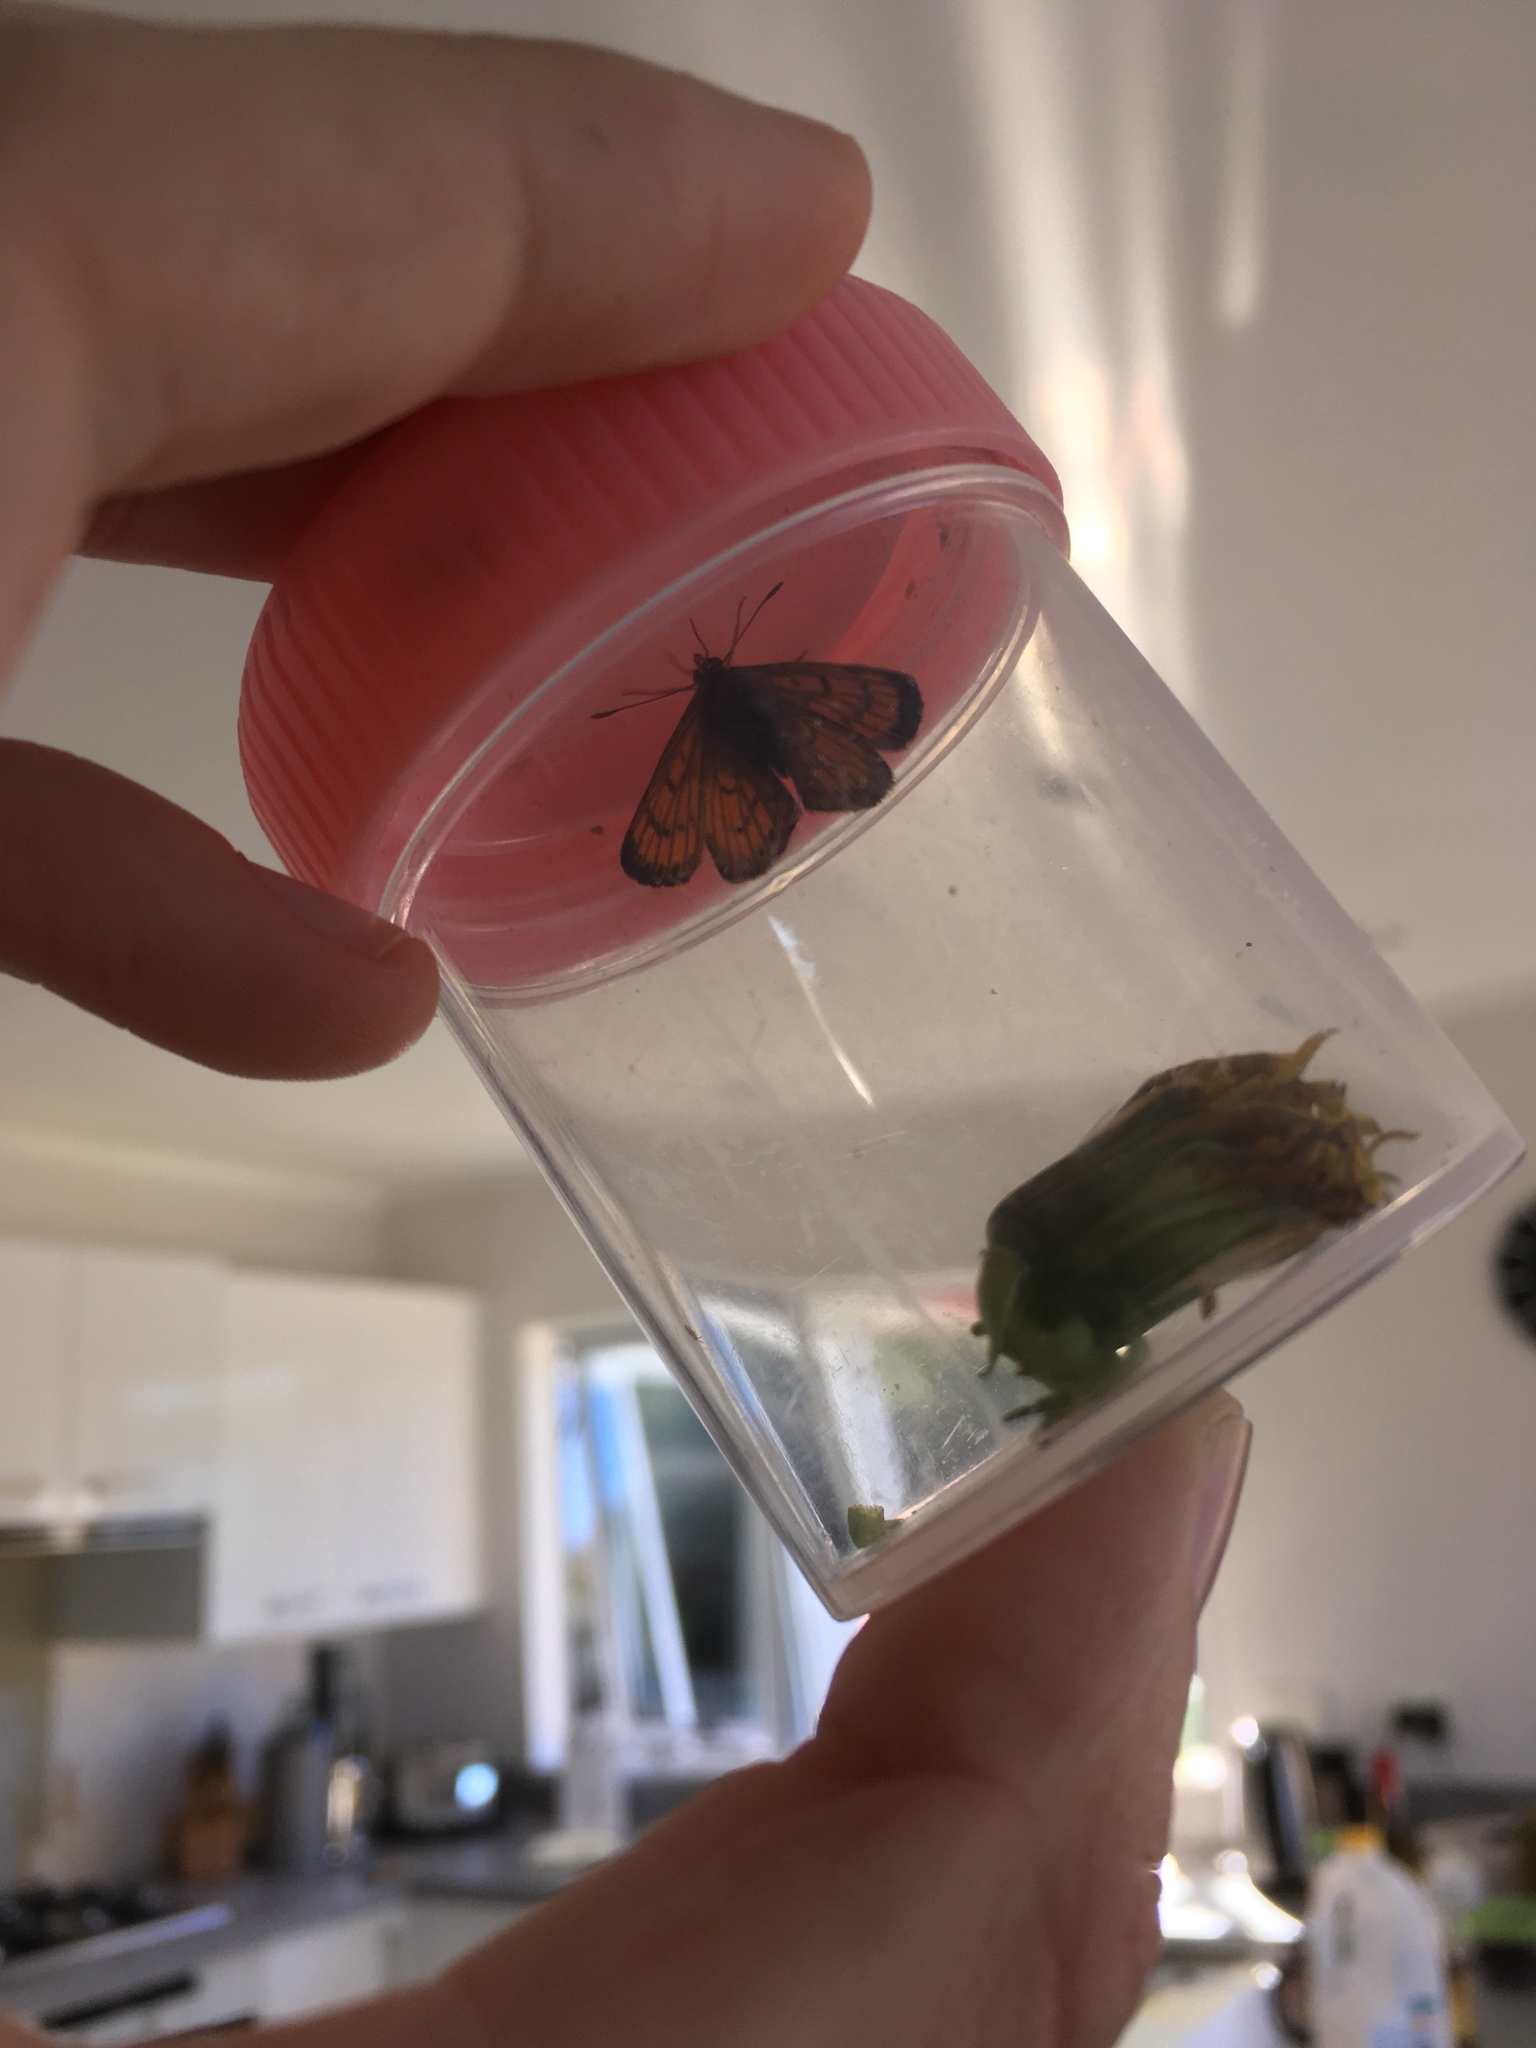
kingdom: Animalia
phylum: Arthropoda
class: Insecta
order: Lepidoptera
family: Lycaenidae
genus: Lycaena
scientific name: Lycaena salustius
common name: North island coastal copper
